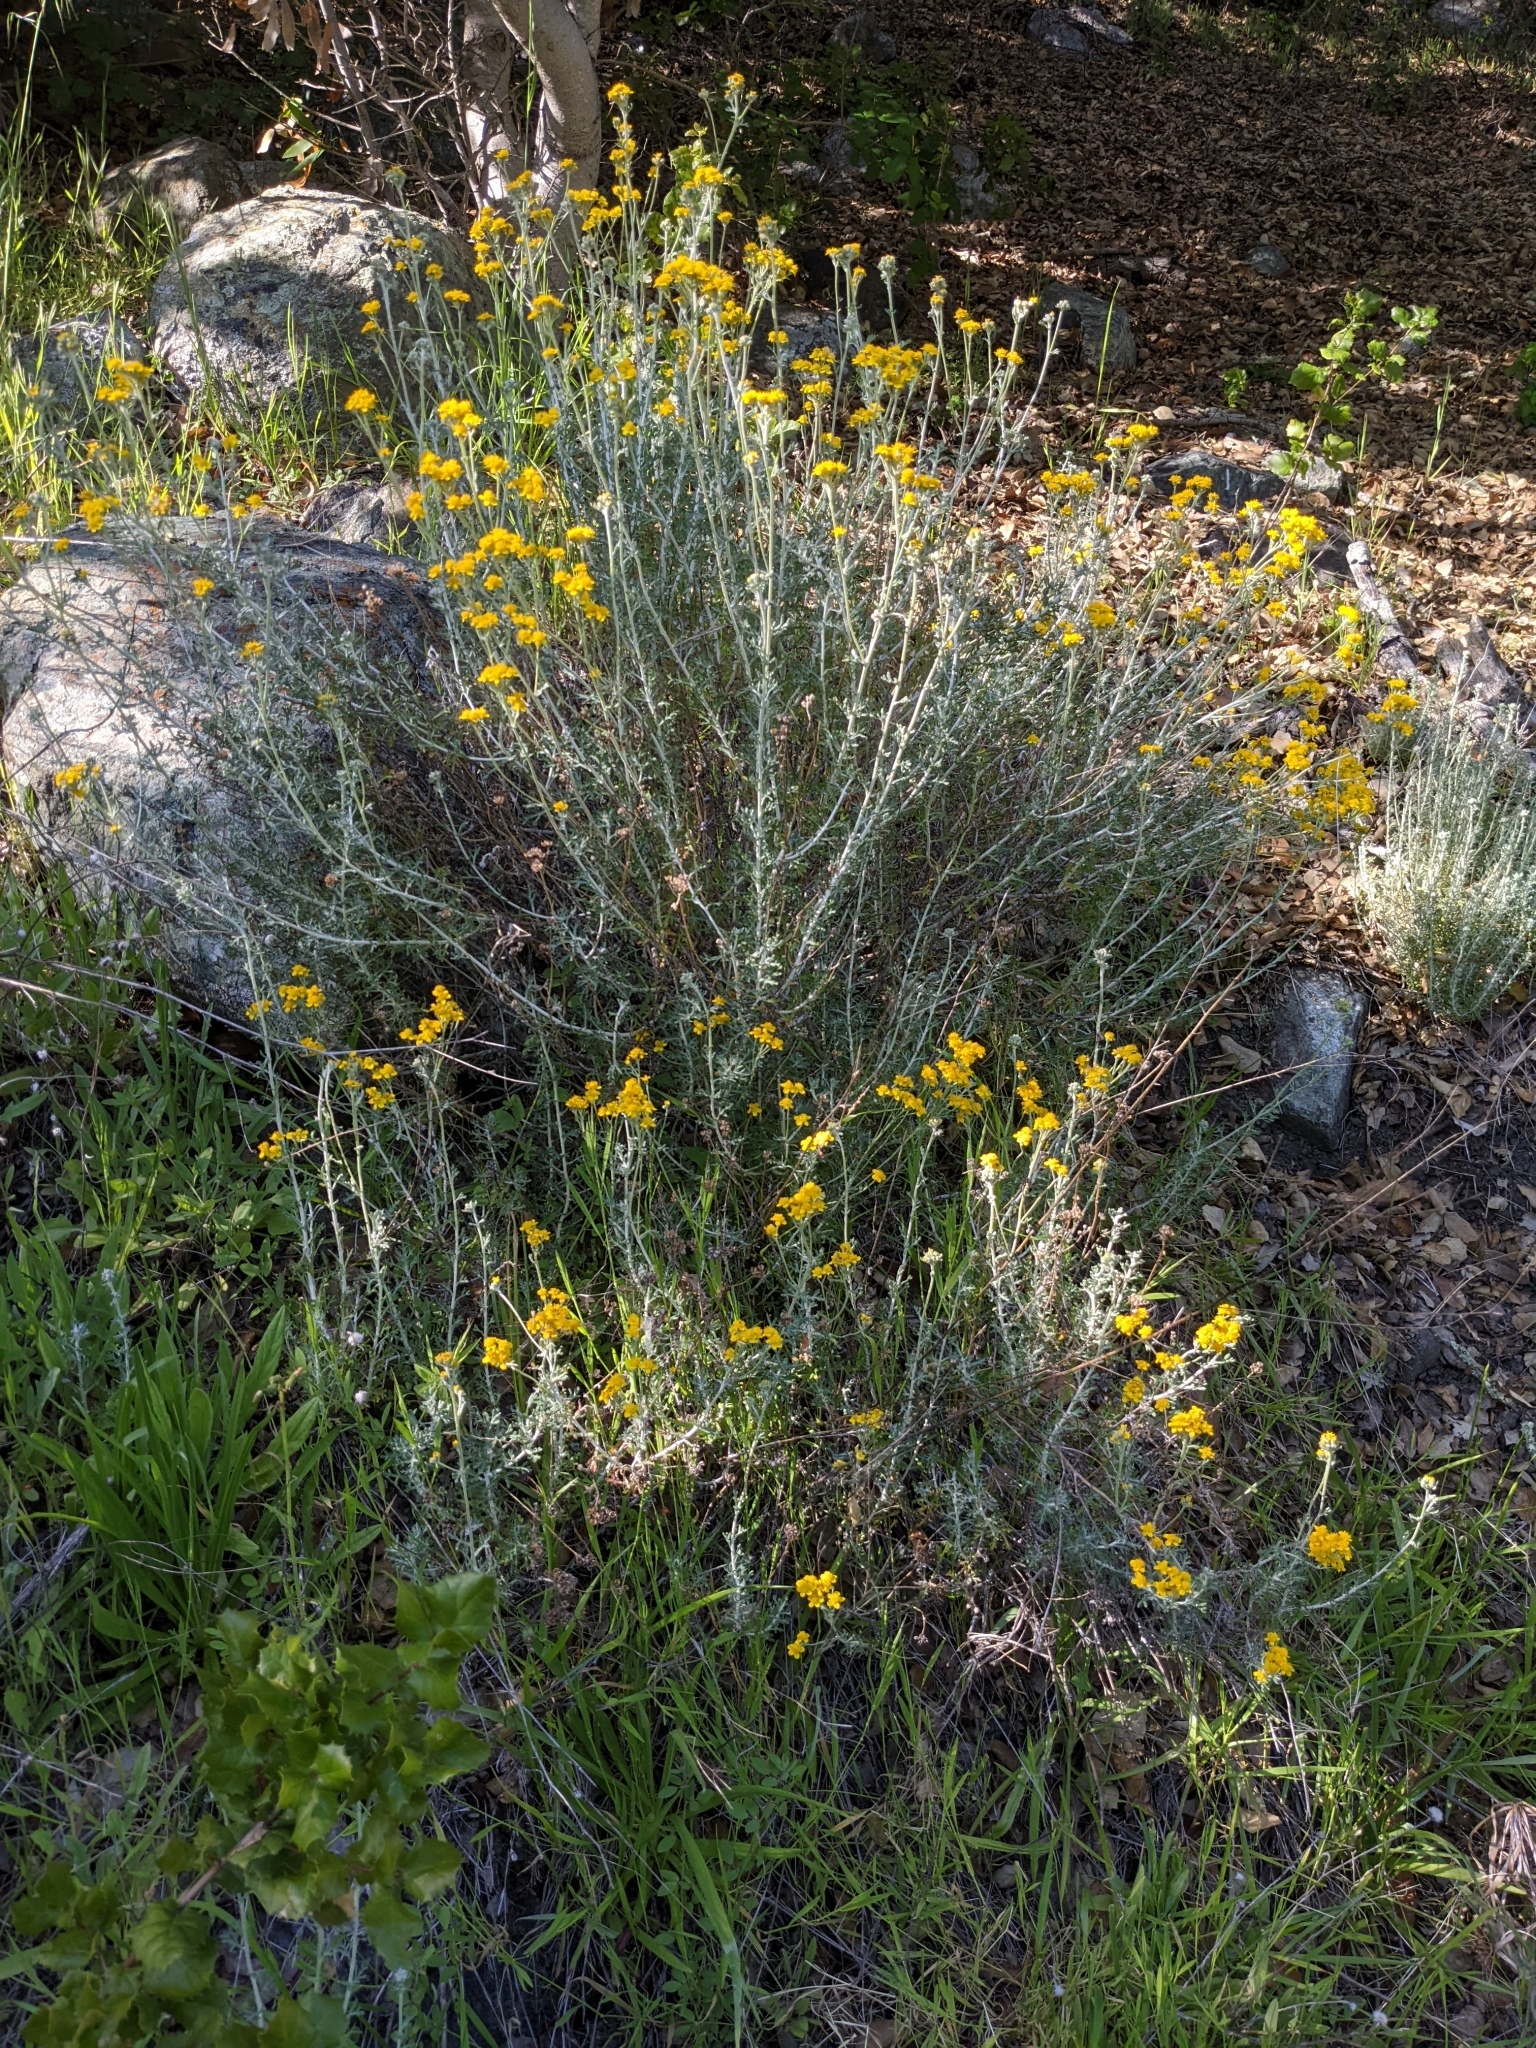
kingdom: Plantae
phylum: Tracheophyta
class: Magnoliopsida
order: Asterales
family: Asteraceae
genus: Eriophyllum
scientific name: Eriophyllum confertiflorum
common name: Golden-yarrow
